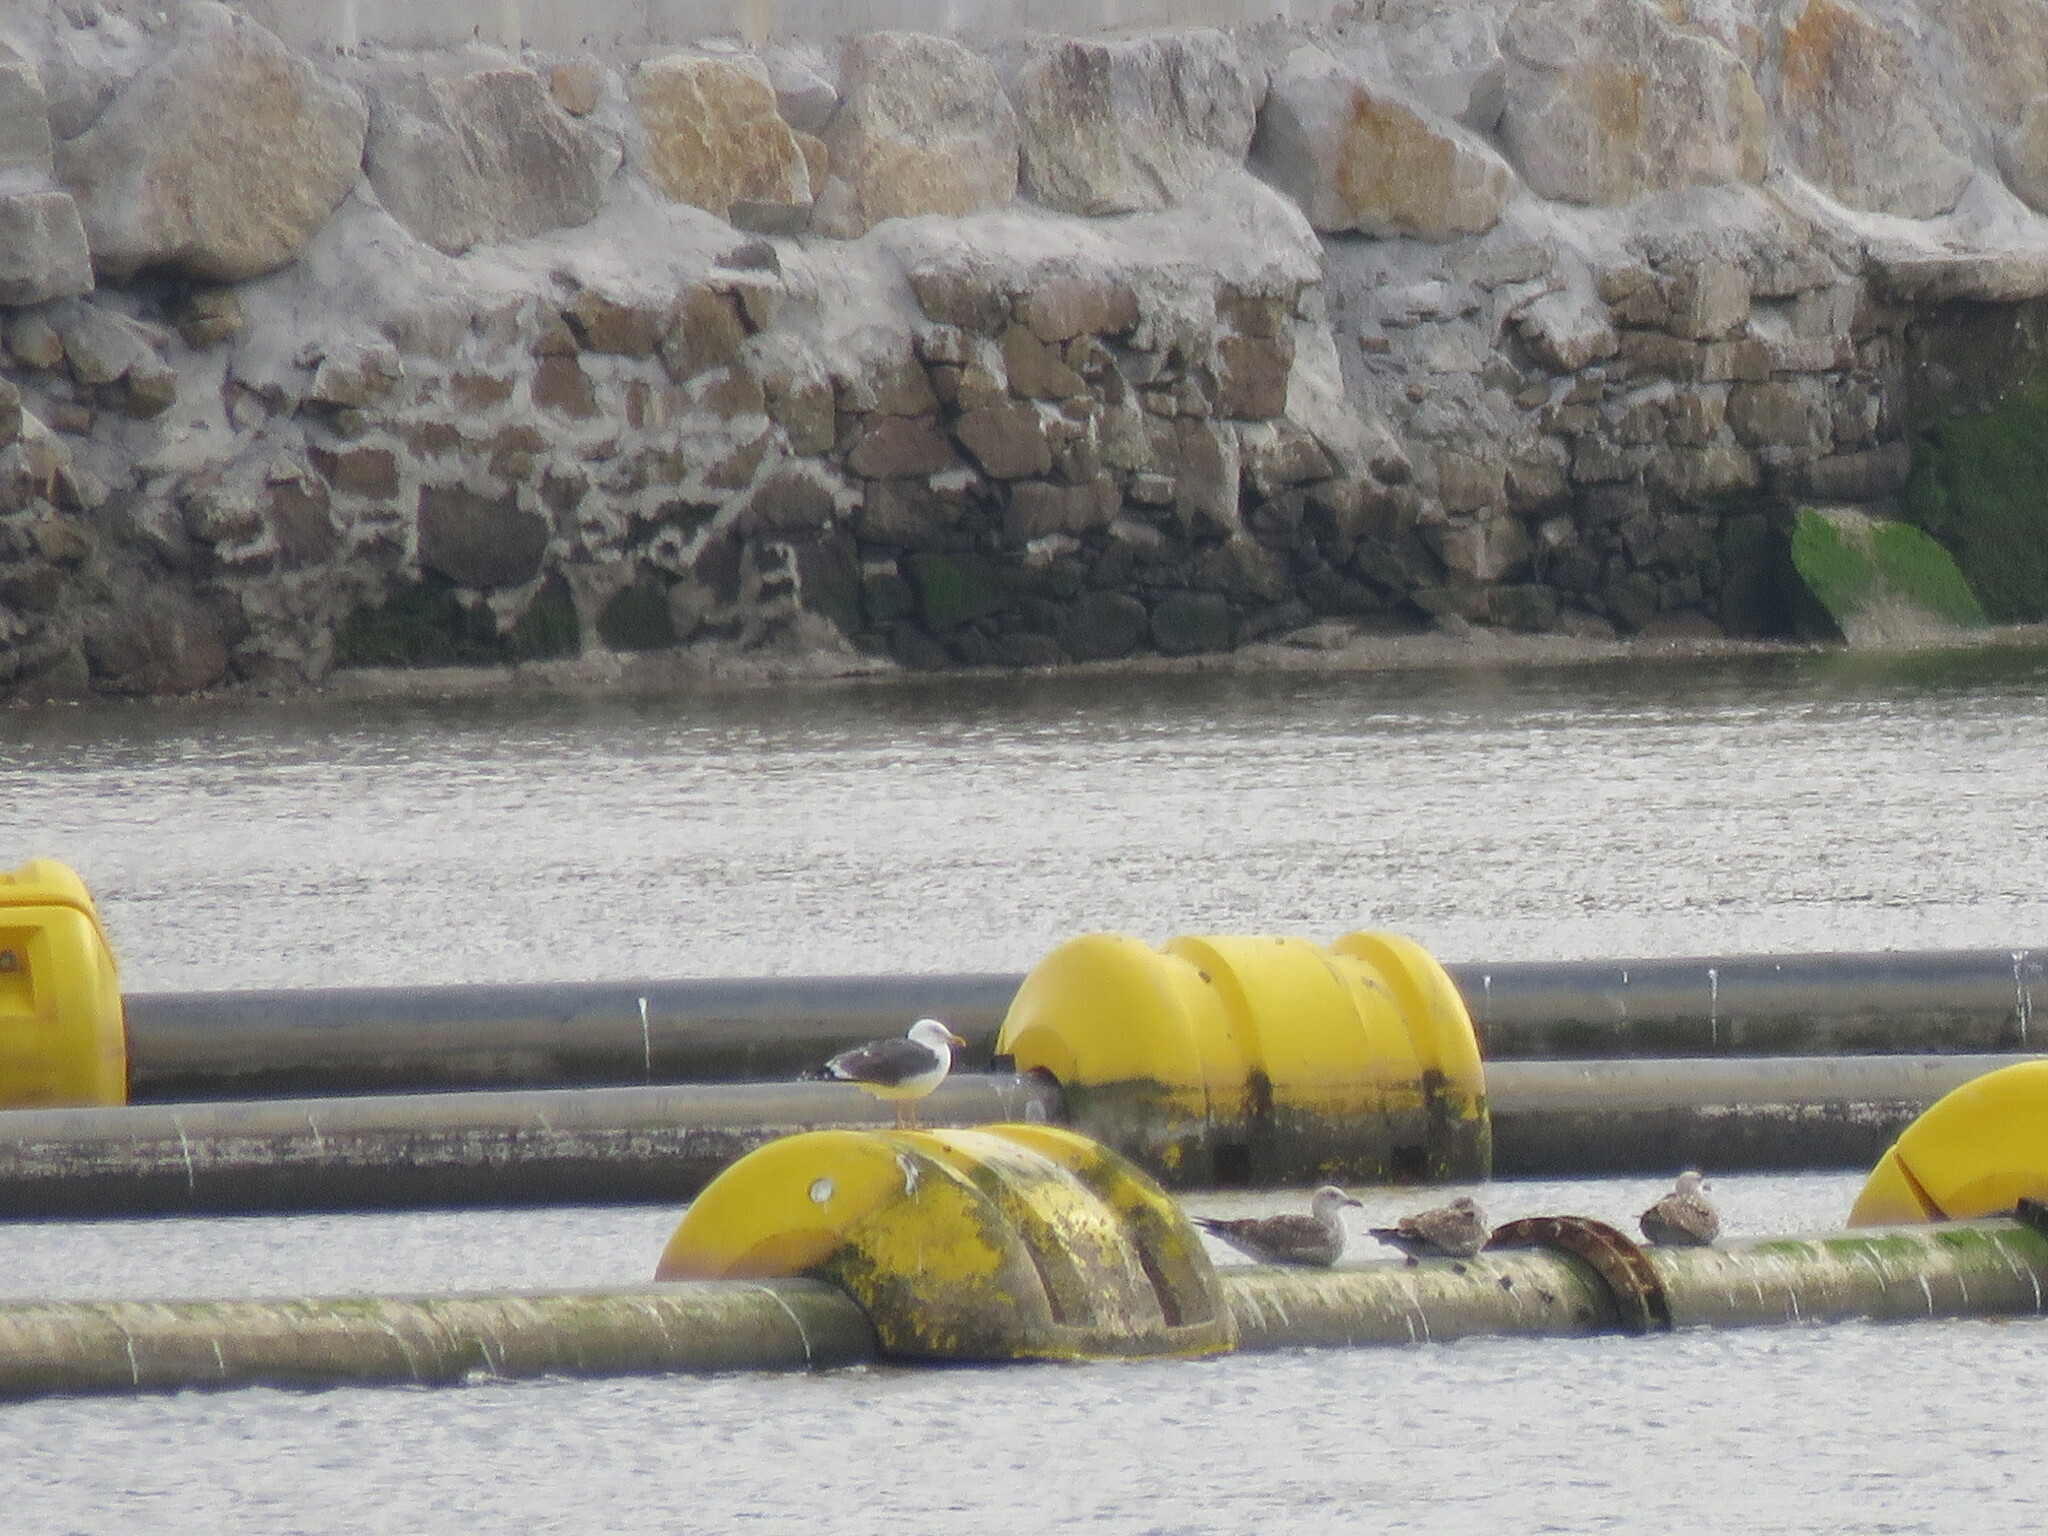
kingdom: Animalia
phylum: Chordata
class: Aves
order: Charadriiformes
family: Laridae
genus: Larus
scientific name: Larus fuscus
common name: Lesser black-backed gull
